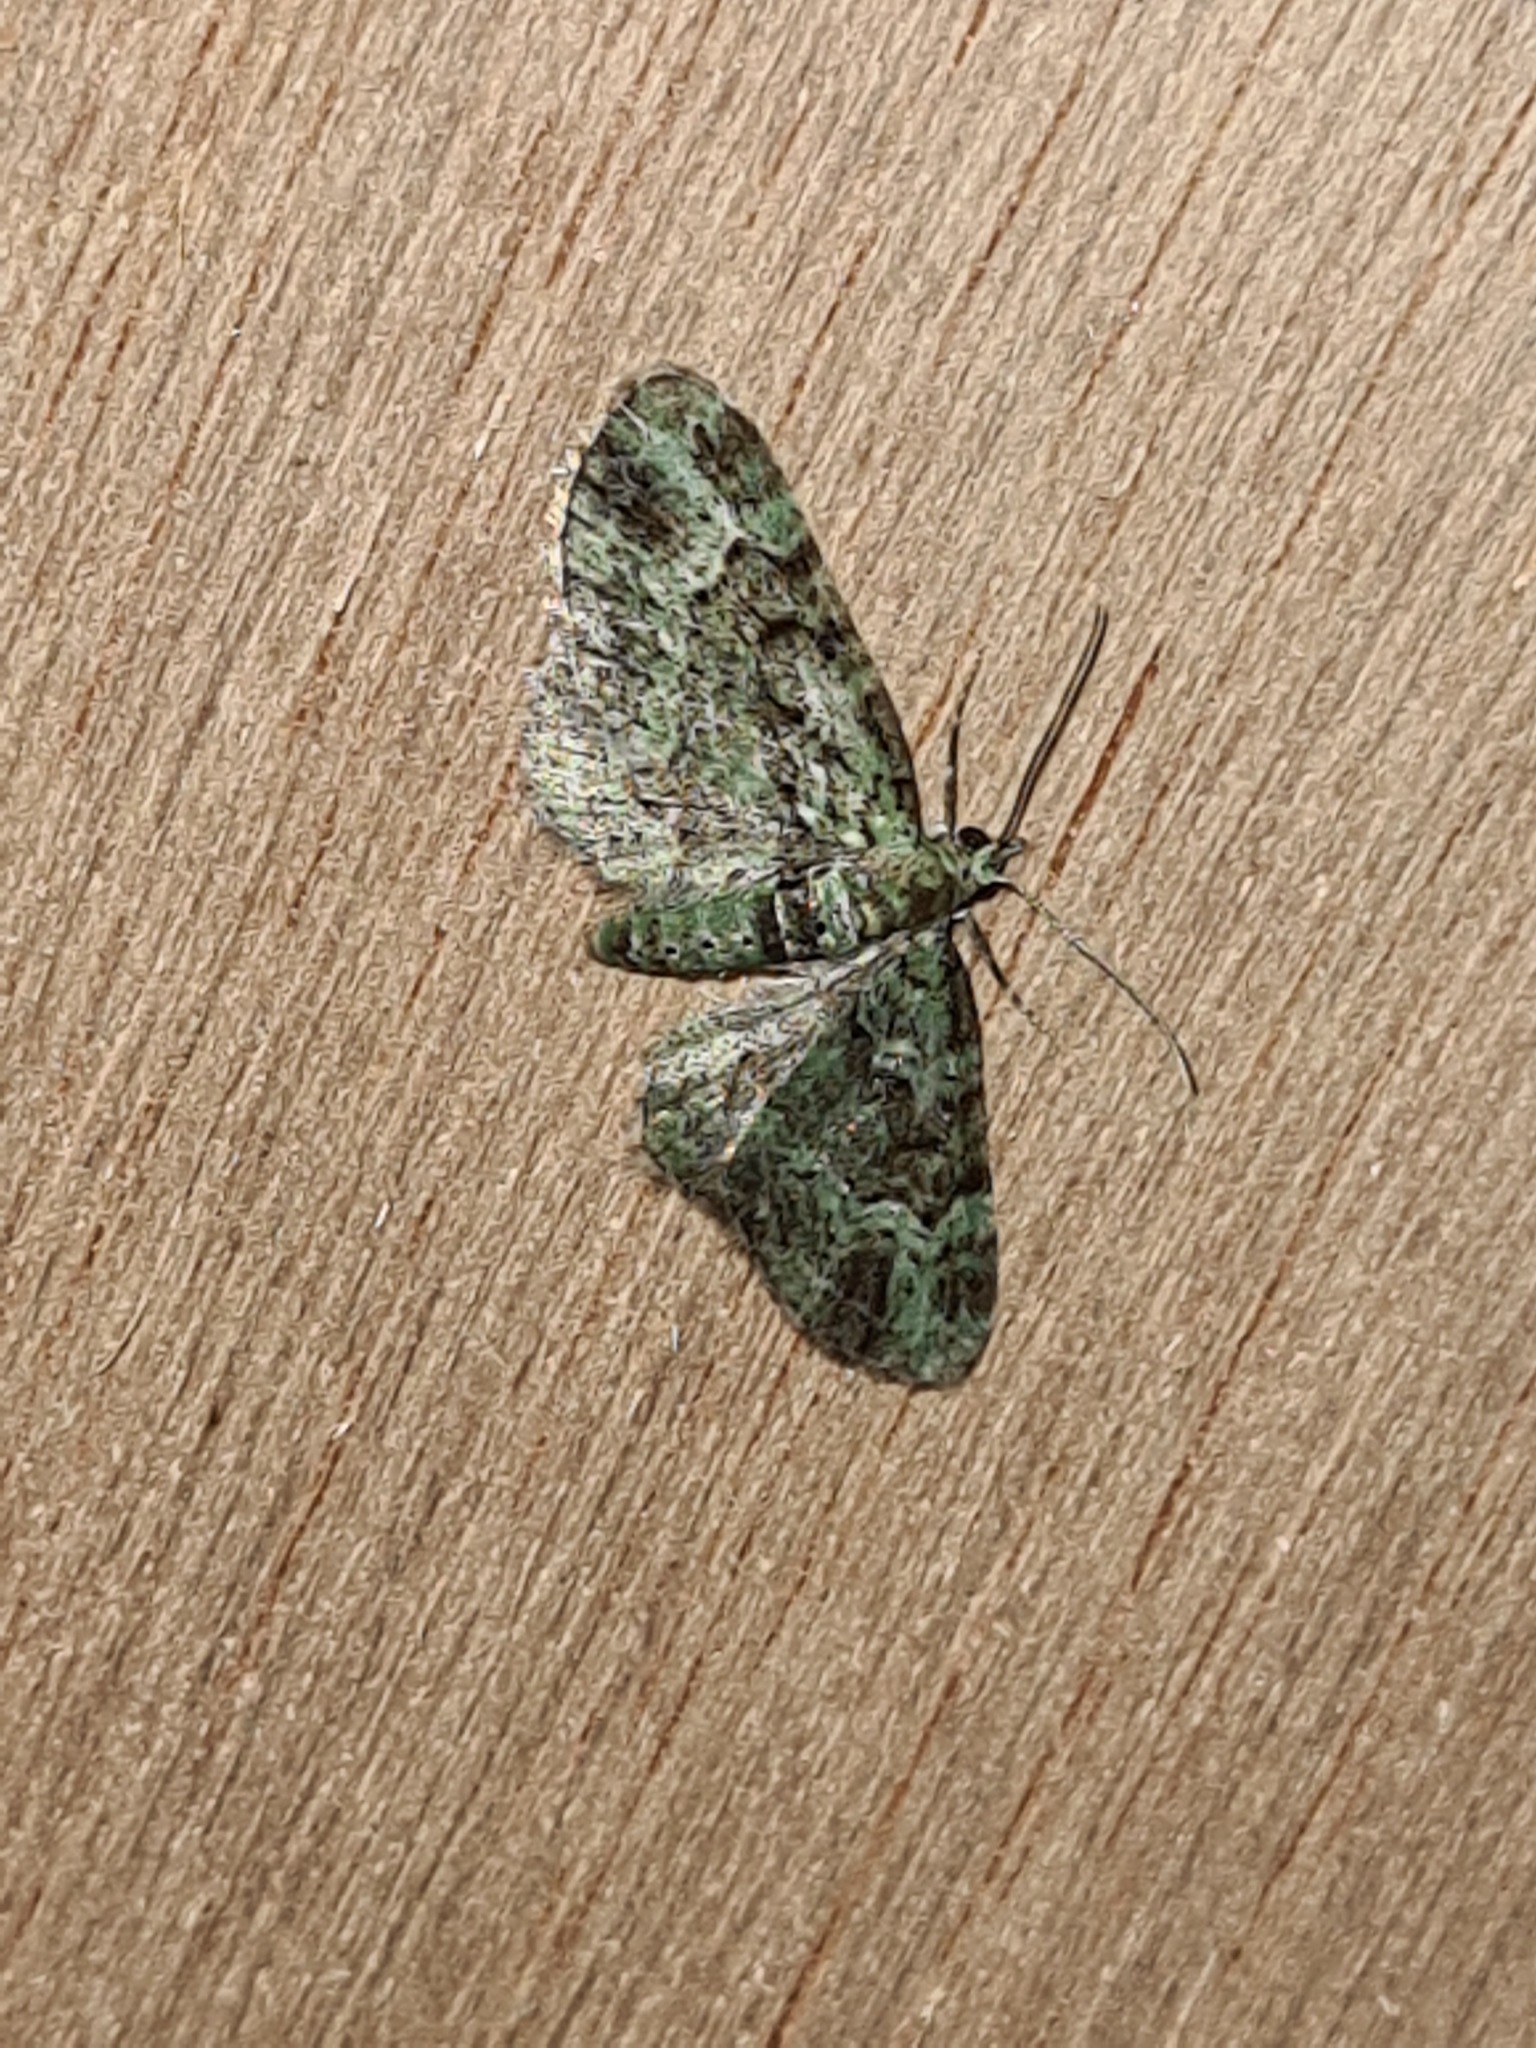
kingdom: Animalia
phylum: Arthropoda
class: Insecta
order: Lepidoptera
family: Geometridae
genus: Pasiphila
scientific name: Pasiphila rectangulata
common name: Green pug
